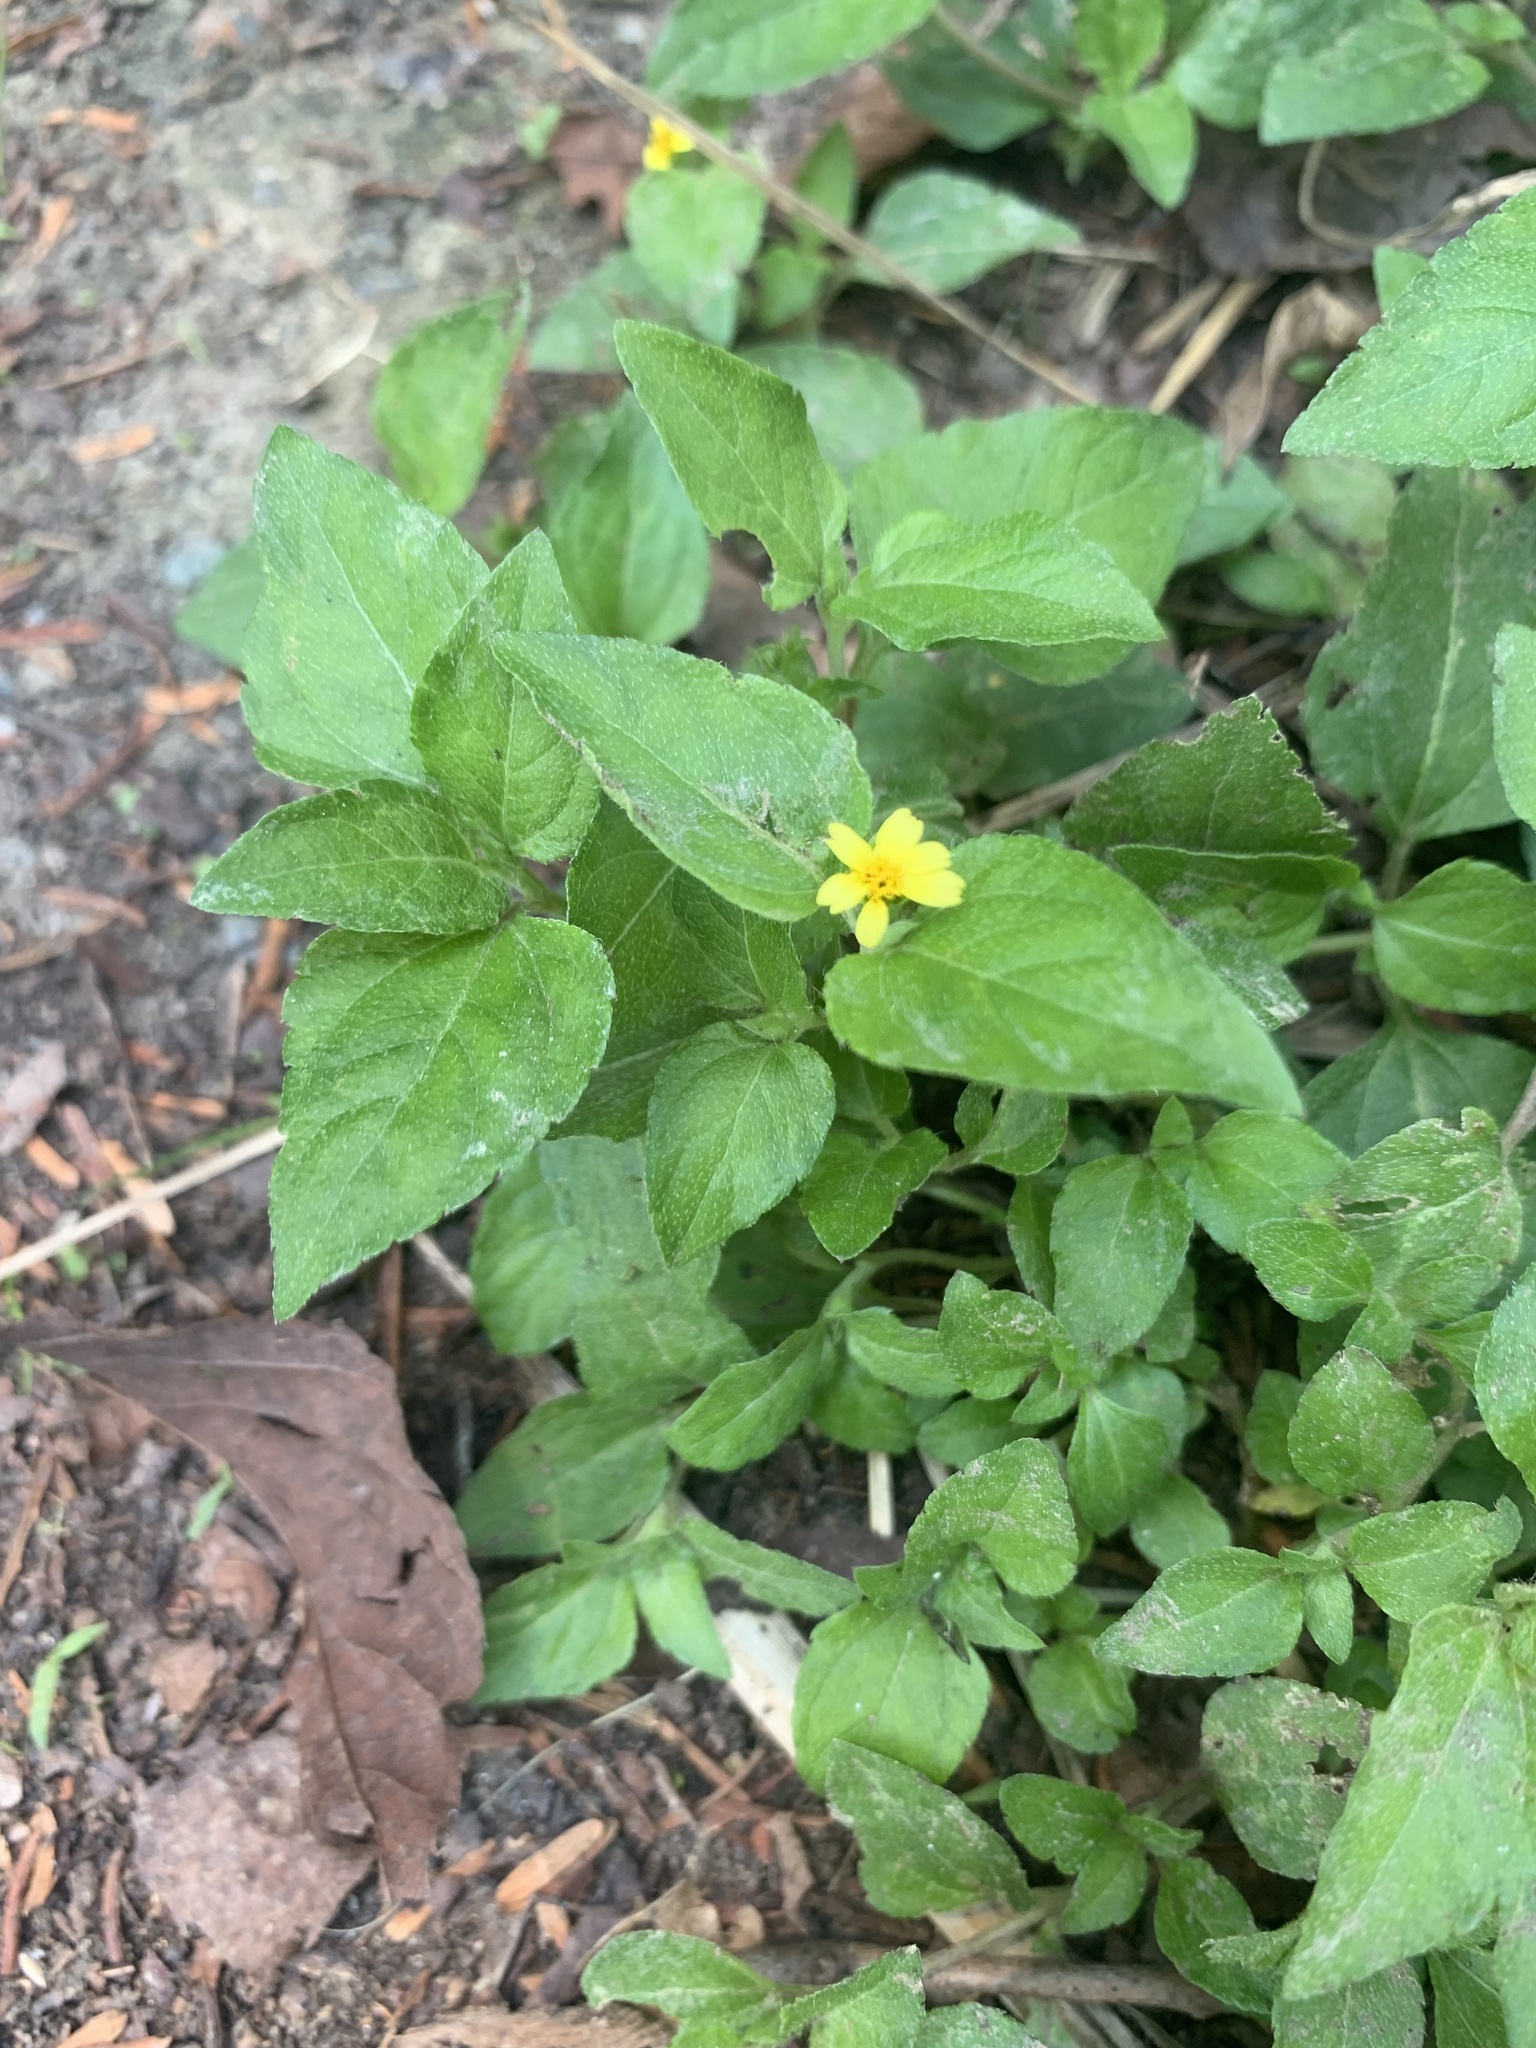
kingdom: Plantae
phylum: Tracheophyta
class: Magnoliopsida
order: Asterales
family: Asteraceae
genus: Calyptocarpus
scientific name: Calyptocarpus vialis
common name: Straggler daisy
